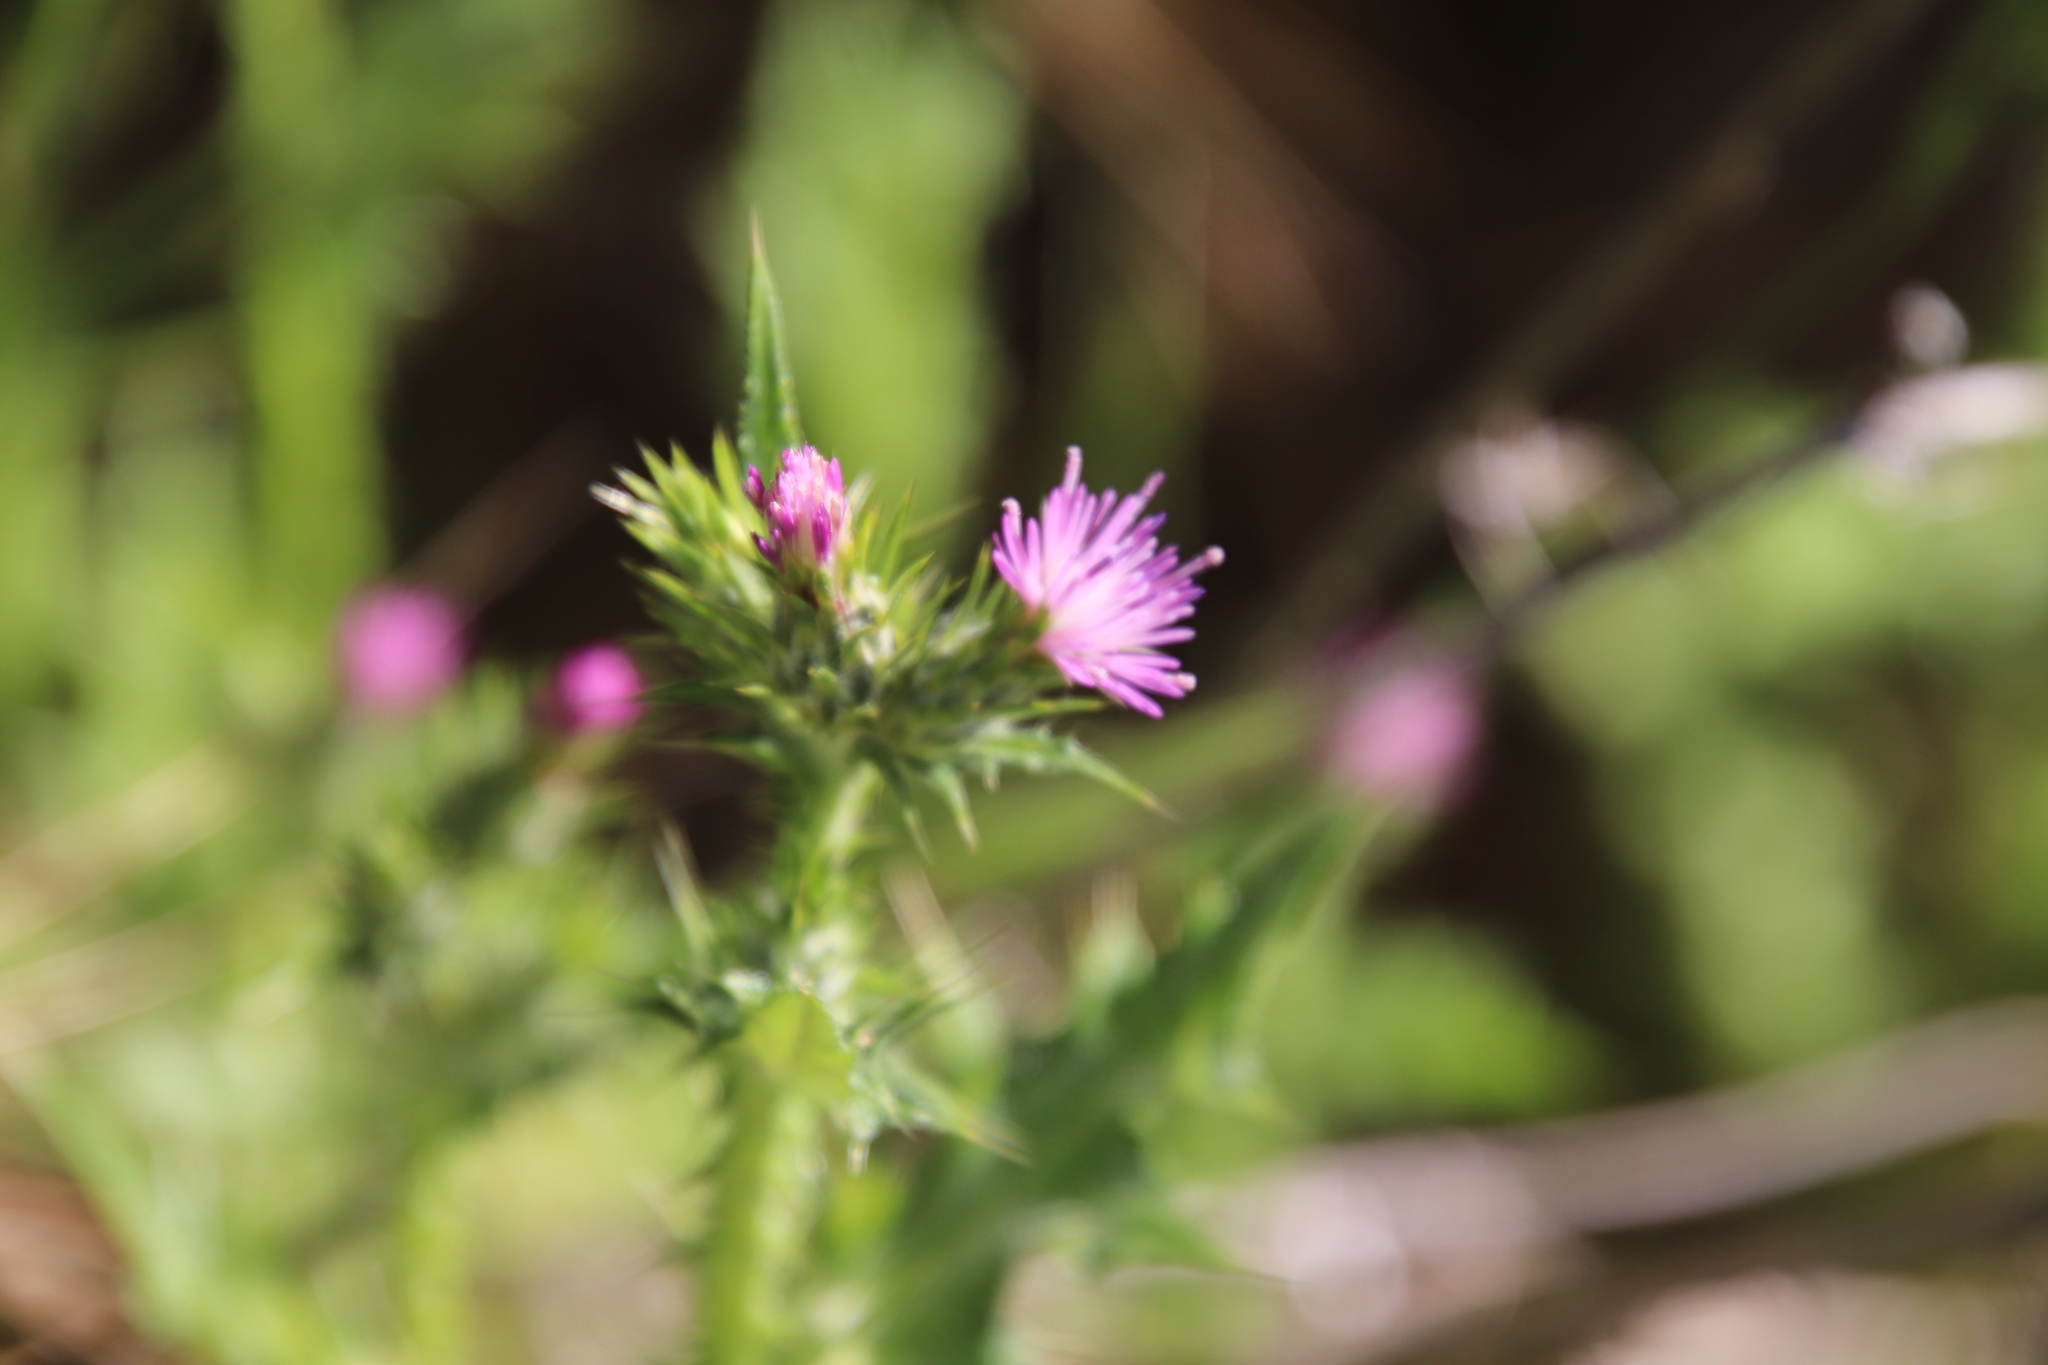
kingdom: Plantae
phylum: Tracheophyta
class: Magnoliopsida
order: Asterales
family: Asteraceae
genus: Carduus
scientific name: Carduus pycnocephalus
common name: Plymouth thistle
